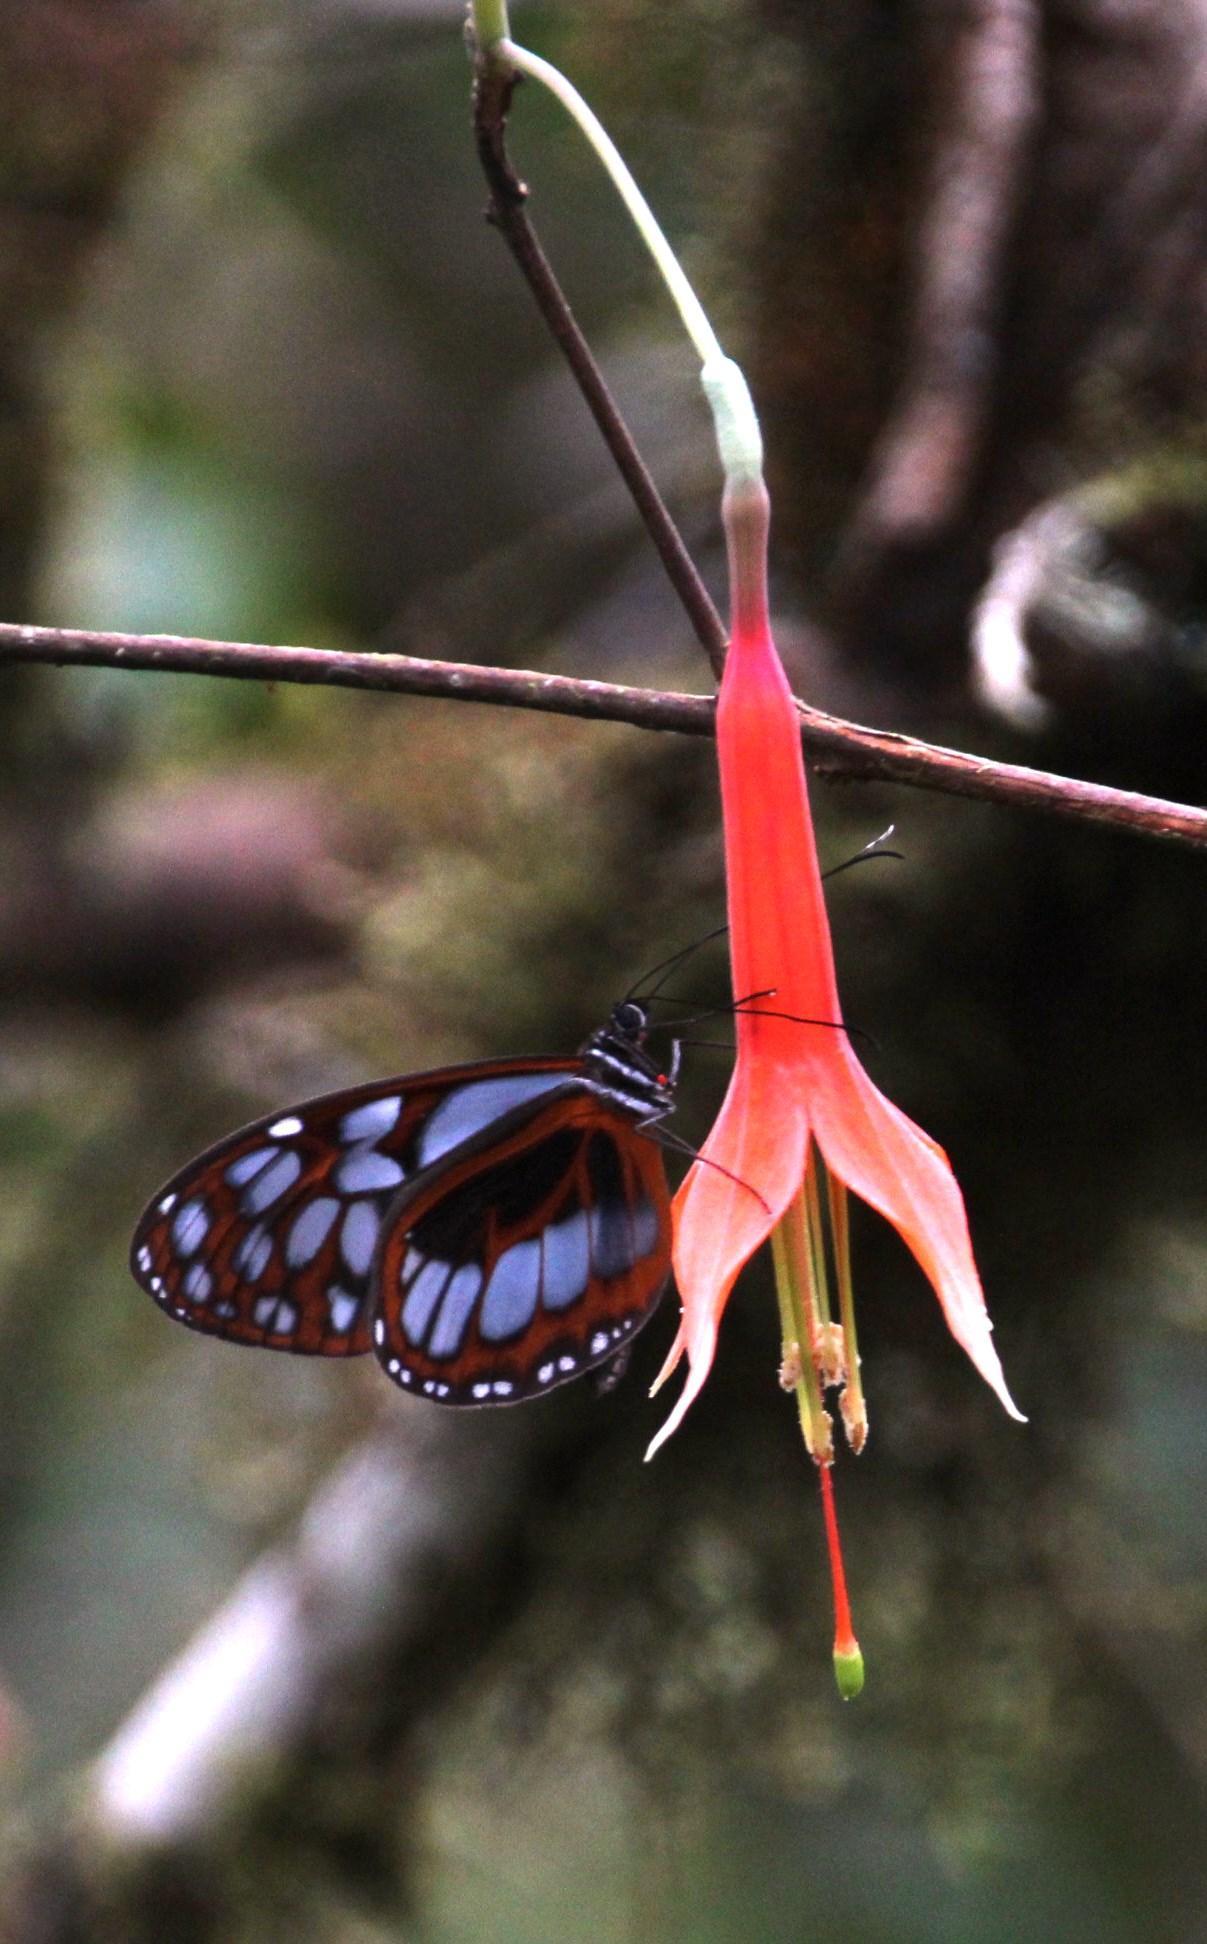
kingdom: Animalia
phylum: Arthropoda
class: Insecta
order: Lepidoptera
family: Nymphalidae
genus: Megoleria
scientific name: Megoleria orestilla
